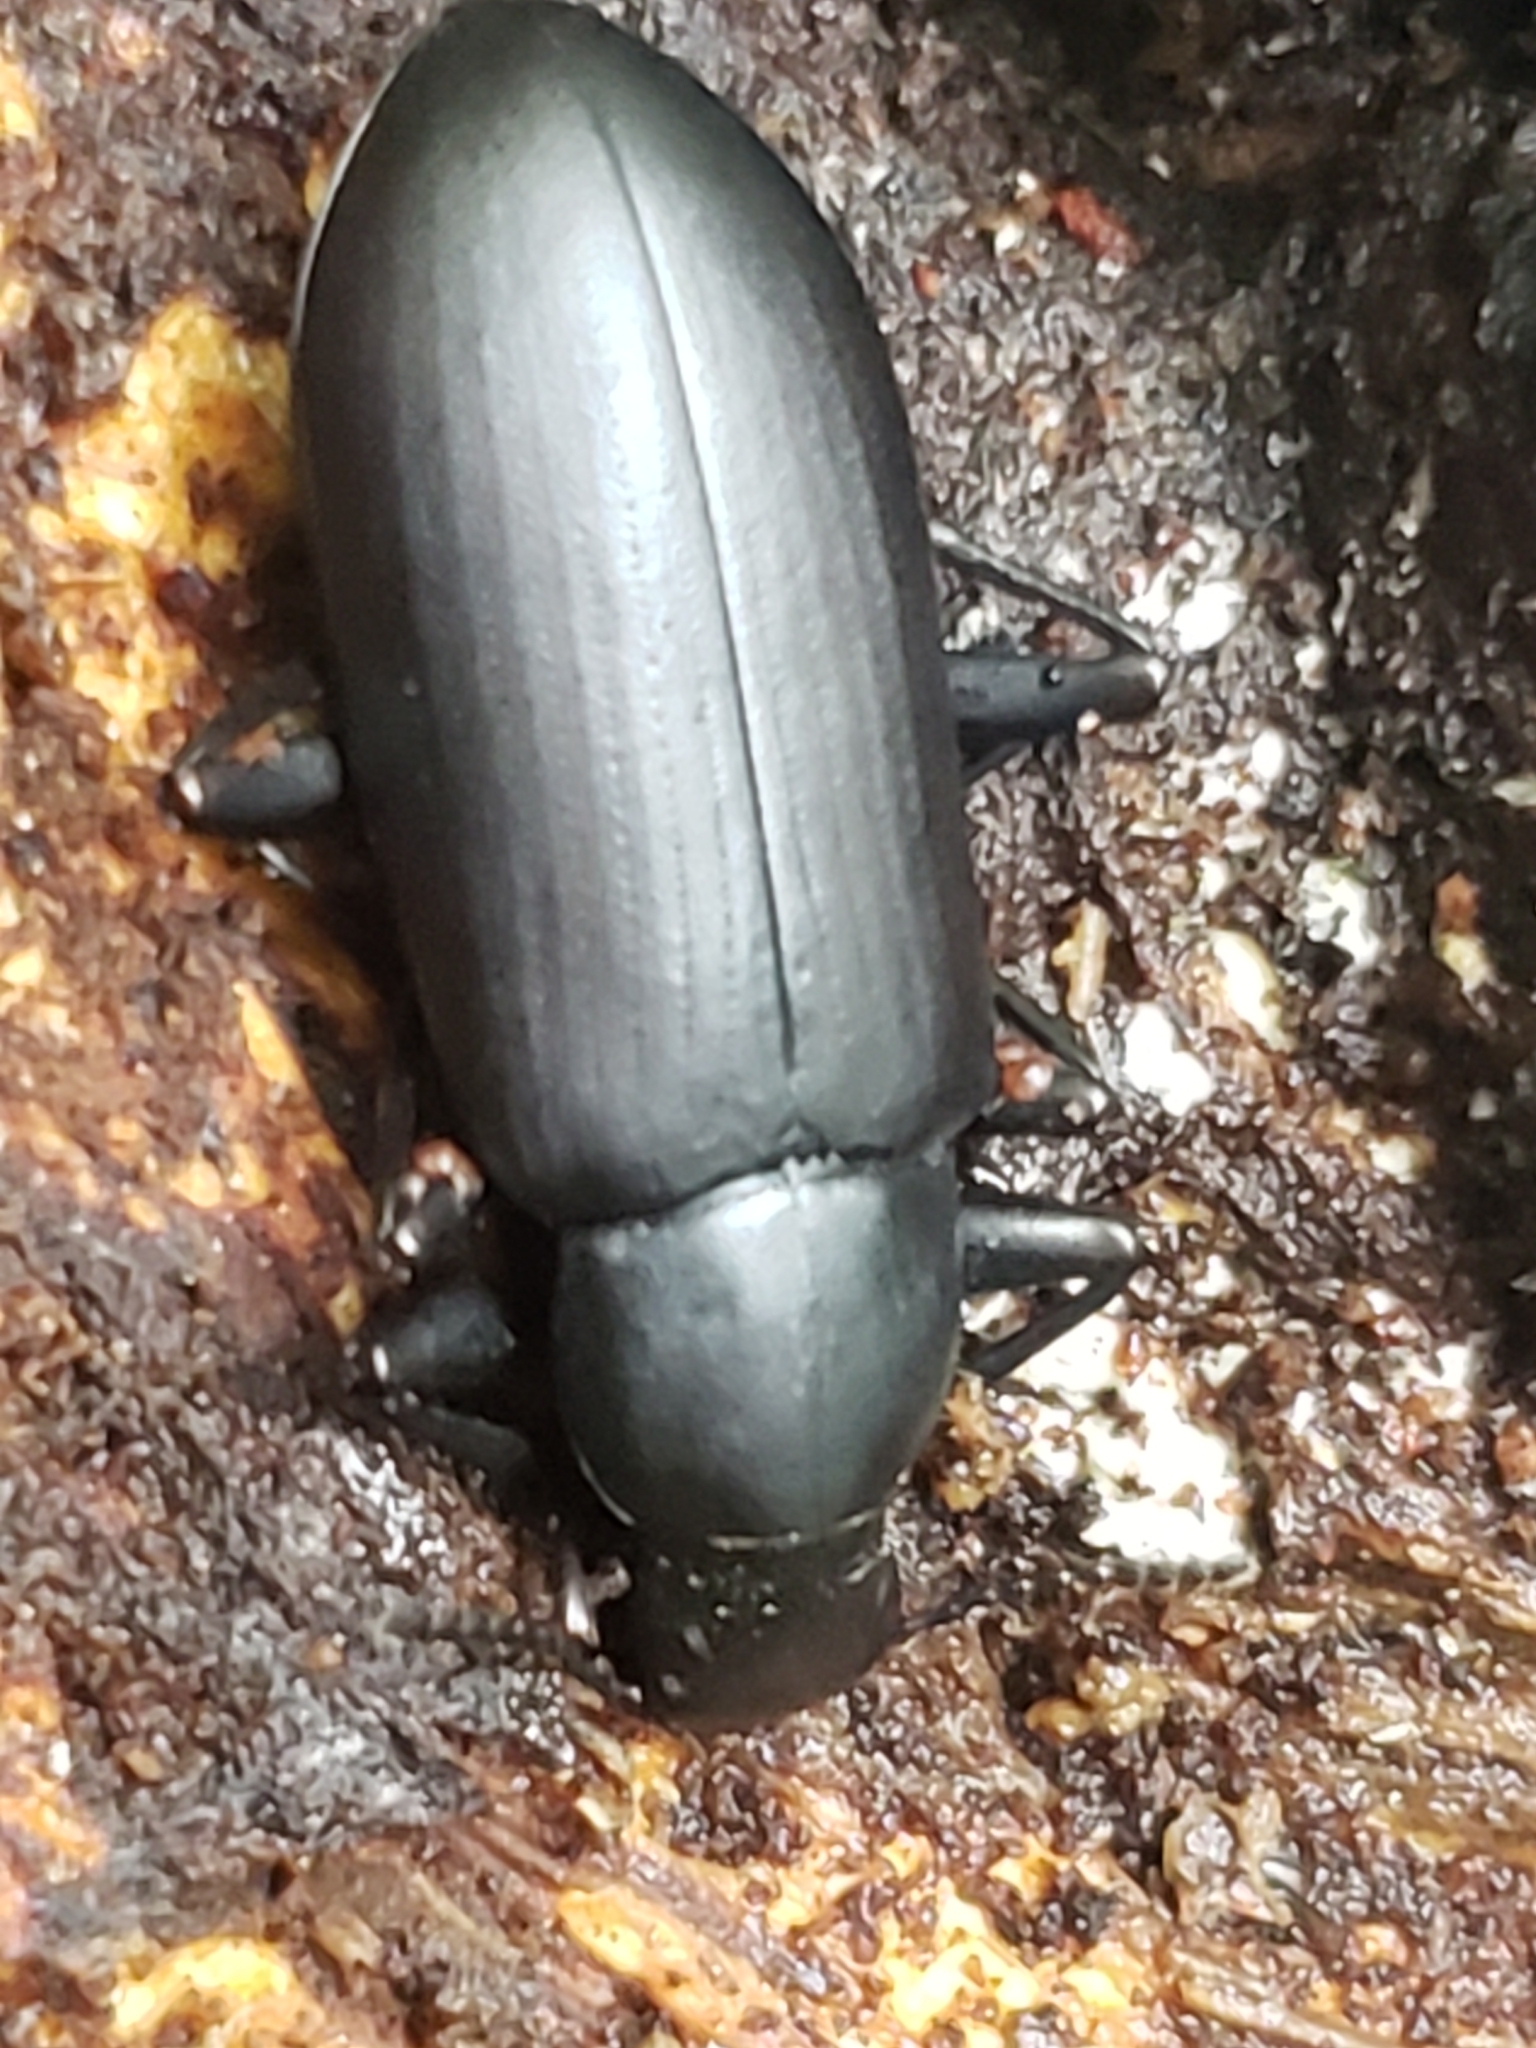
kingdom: Animalia
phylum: Arthropoda
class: Insecta
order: Coleoptera
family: Tenebrionidae
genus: Alobates
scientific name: Alobates
